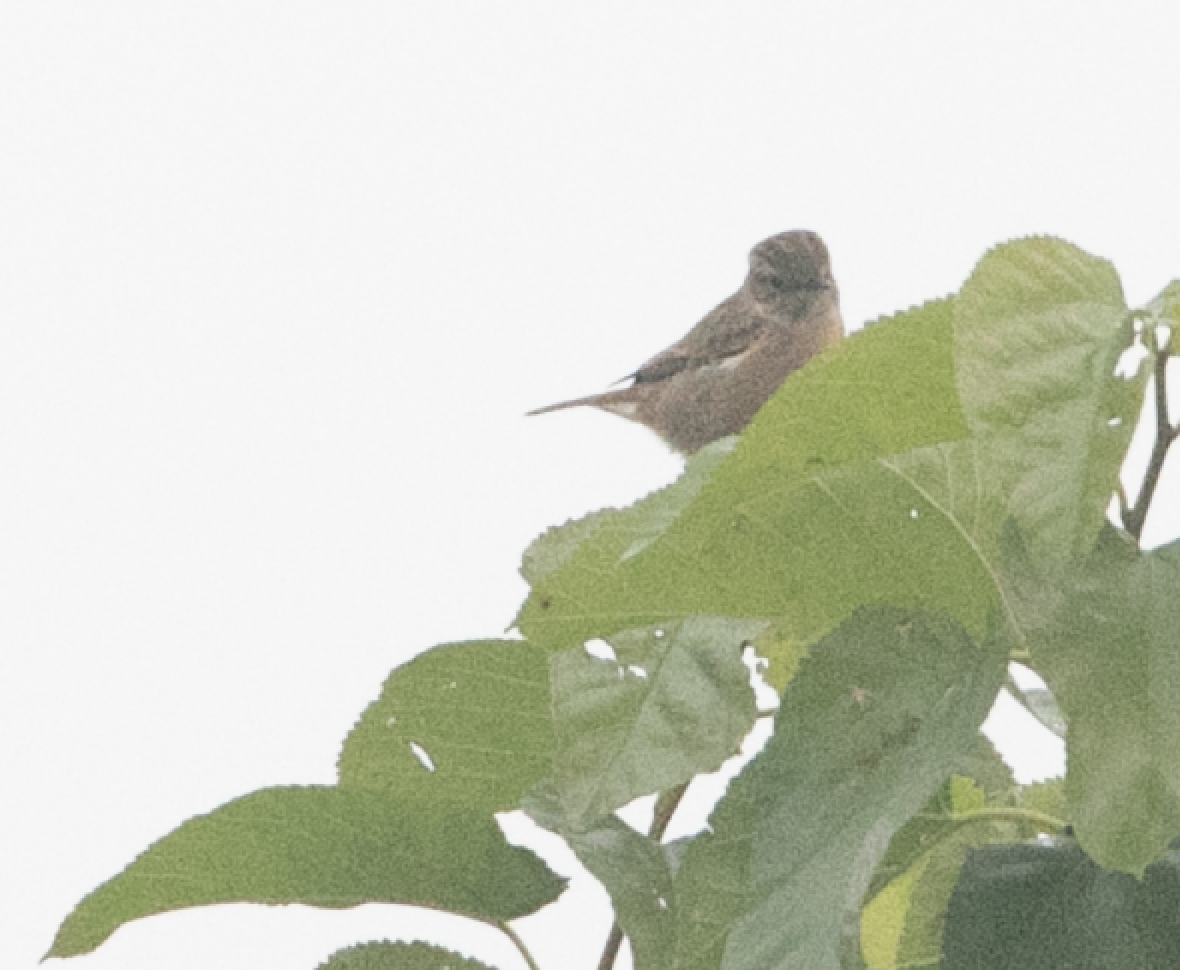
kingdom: Animalia
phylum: Chordata
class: Aves
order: Passeriformes
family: Muscicapidae
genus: Saxicola
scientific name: Saxicola rubicola
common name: European stonechat
